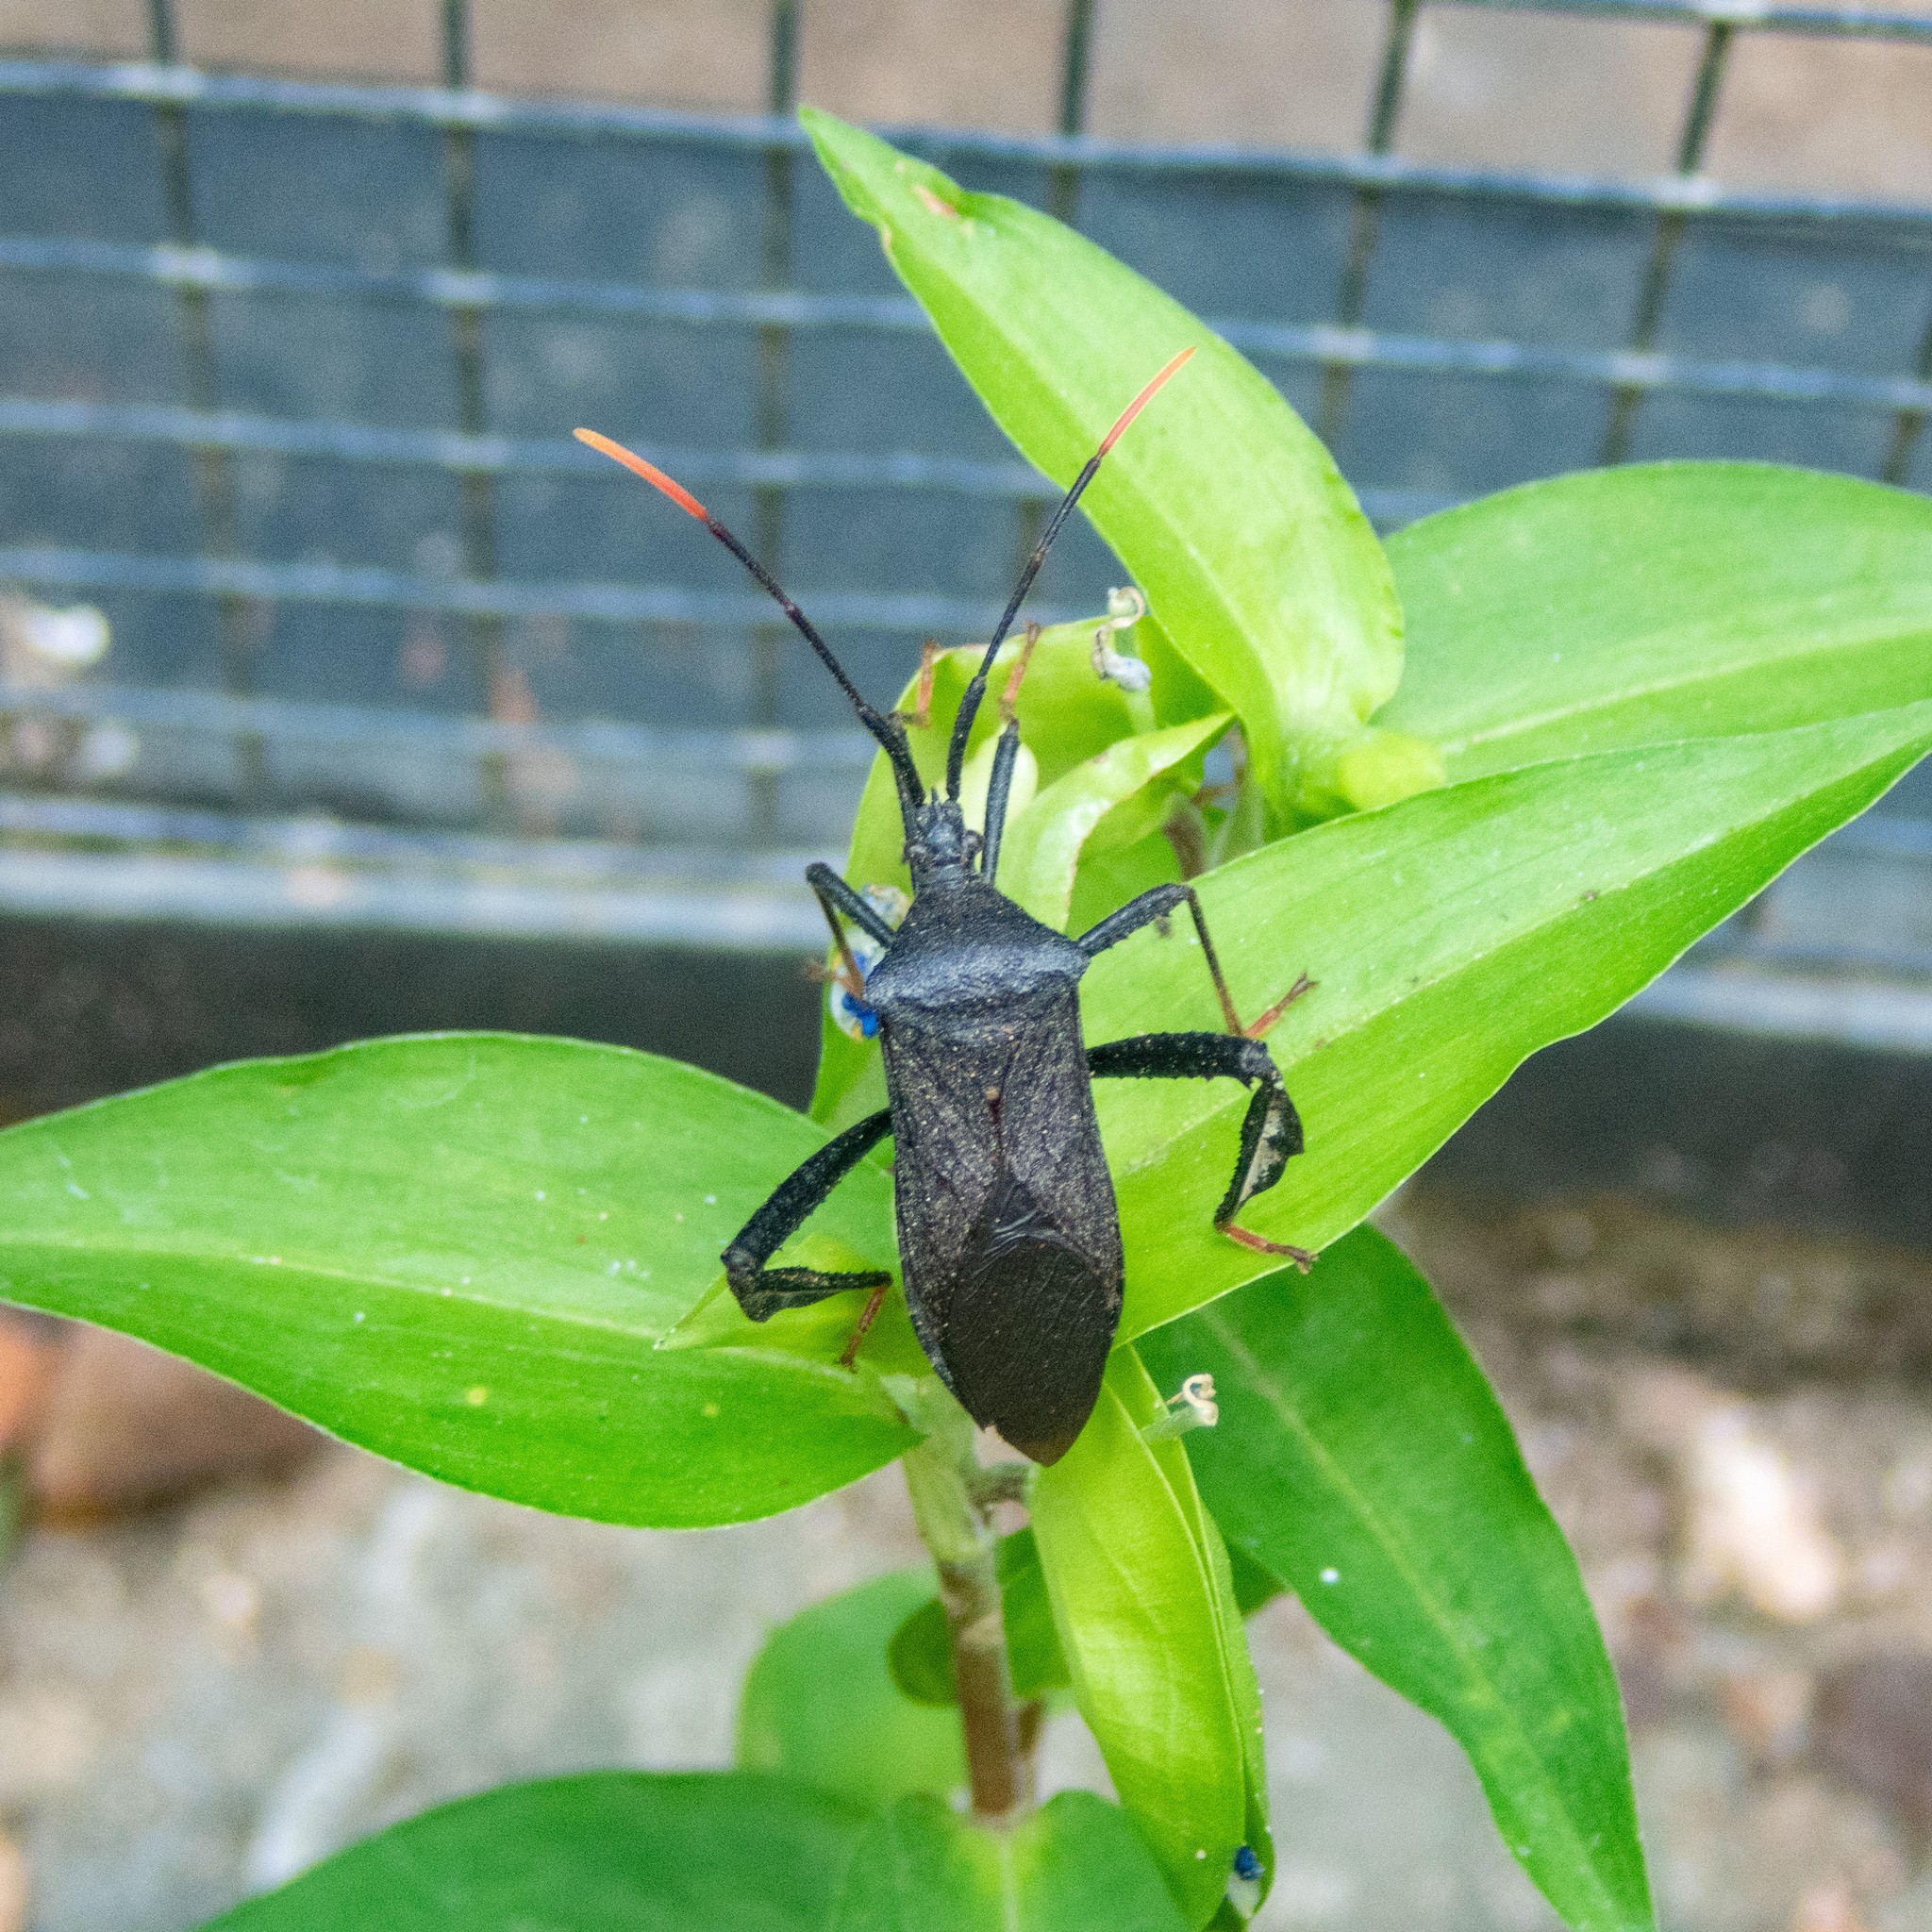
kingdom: Animalia
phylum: Arthropoda
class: Insecta
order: Hemiptera
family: Coreidae
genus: Acanthocephala
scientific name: Acanthocephala terminalis
